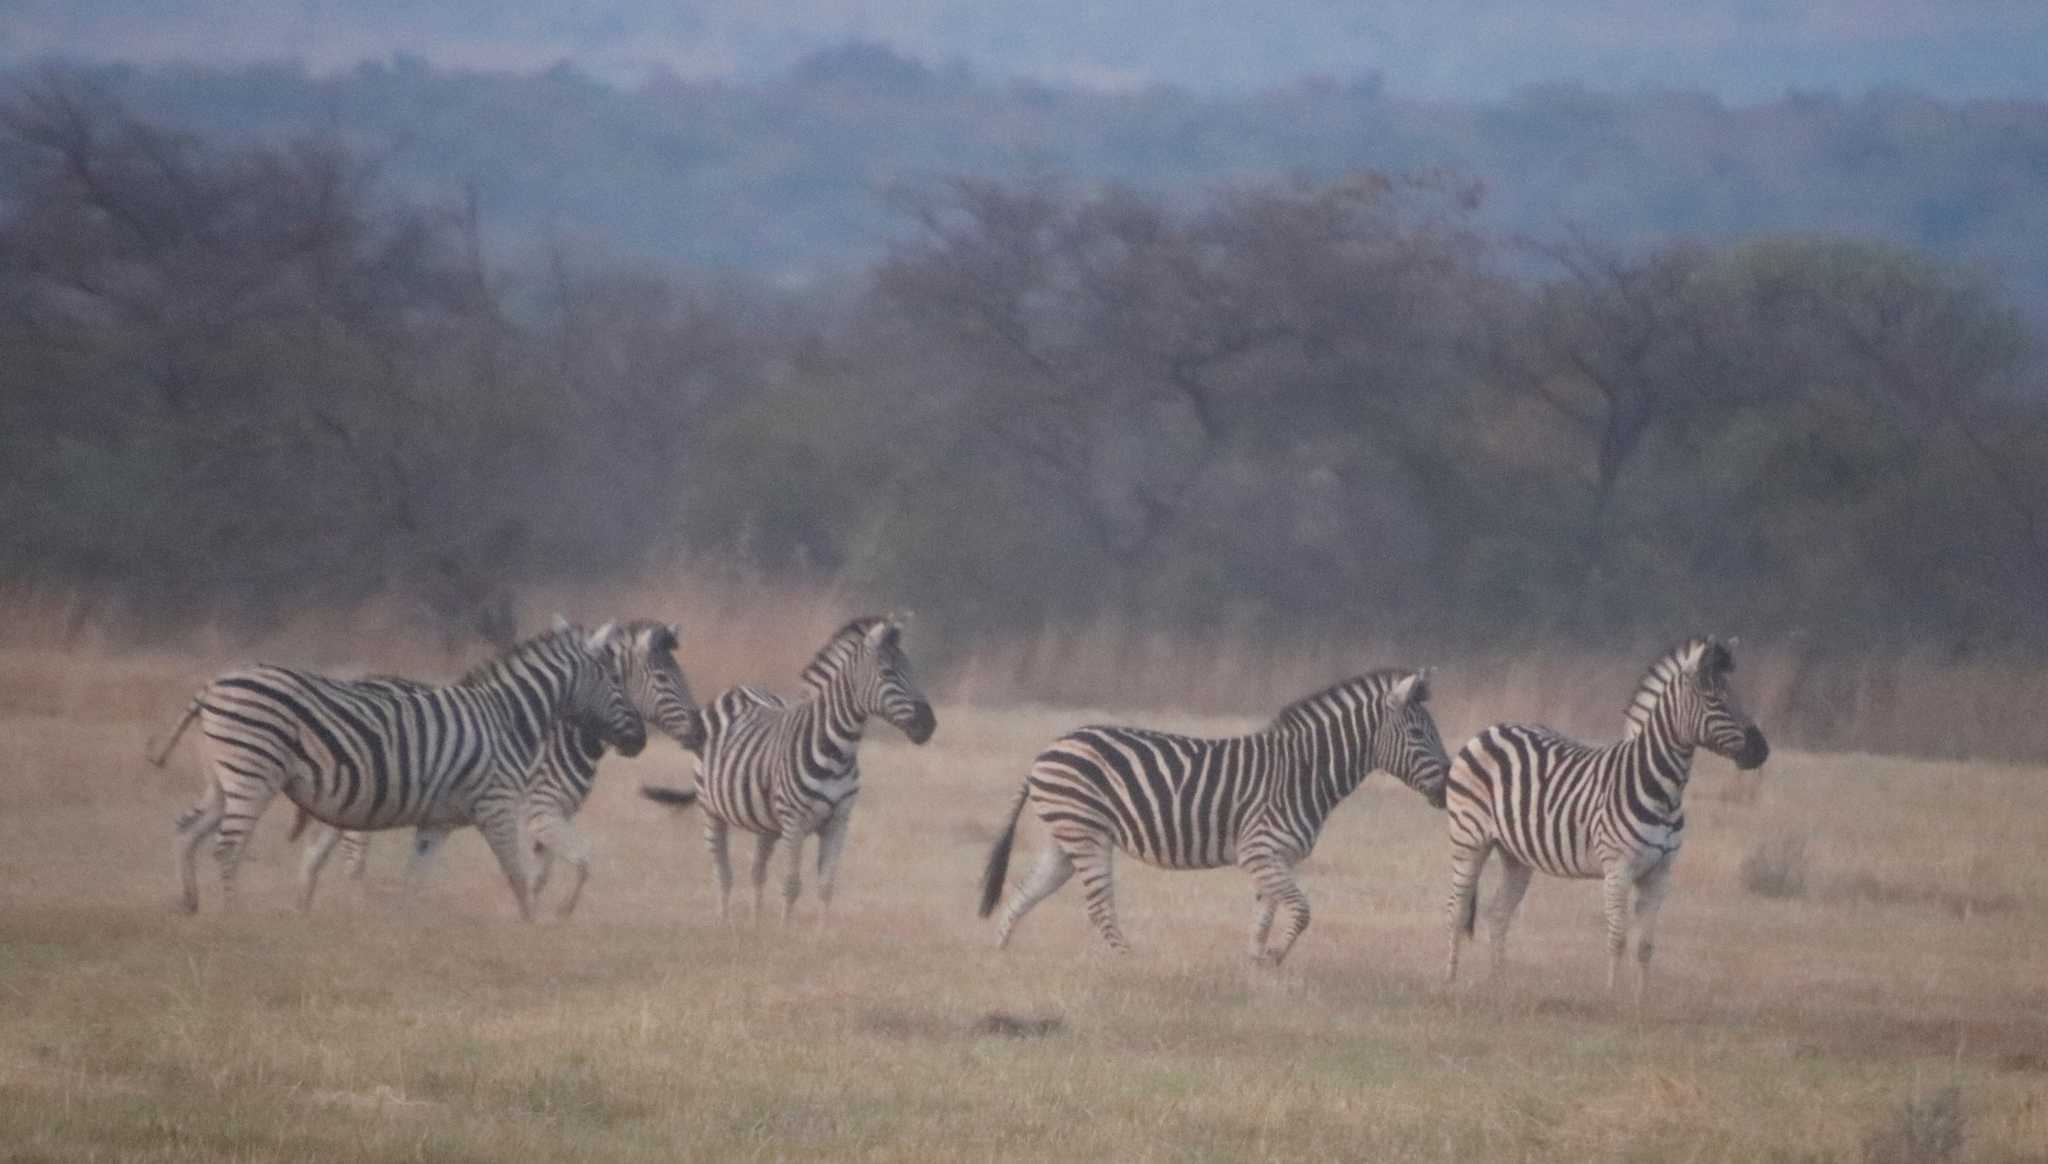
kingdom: Animalia
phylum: Chordata
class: Mammalia
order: Perissodactyla
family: Equidae
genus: Equus
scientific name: Equus quagga
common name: Plains zebra
